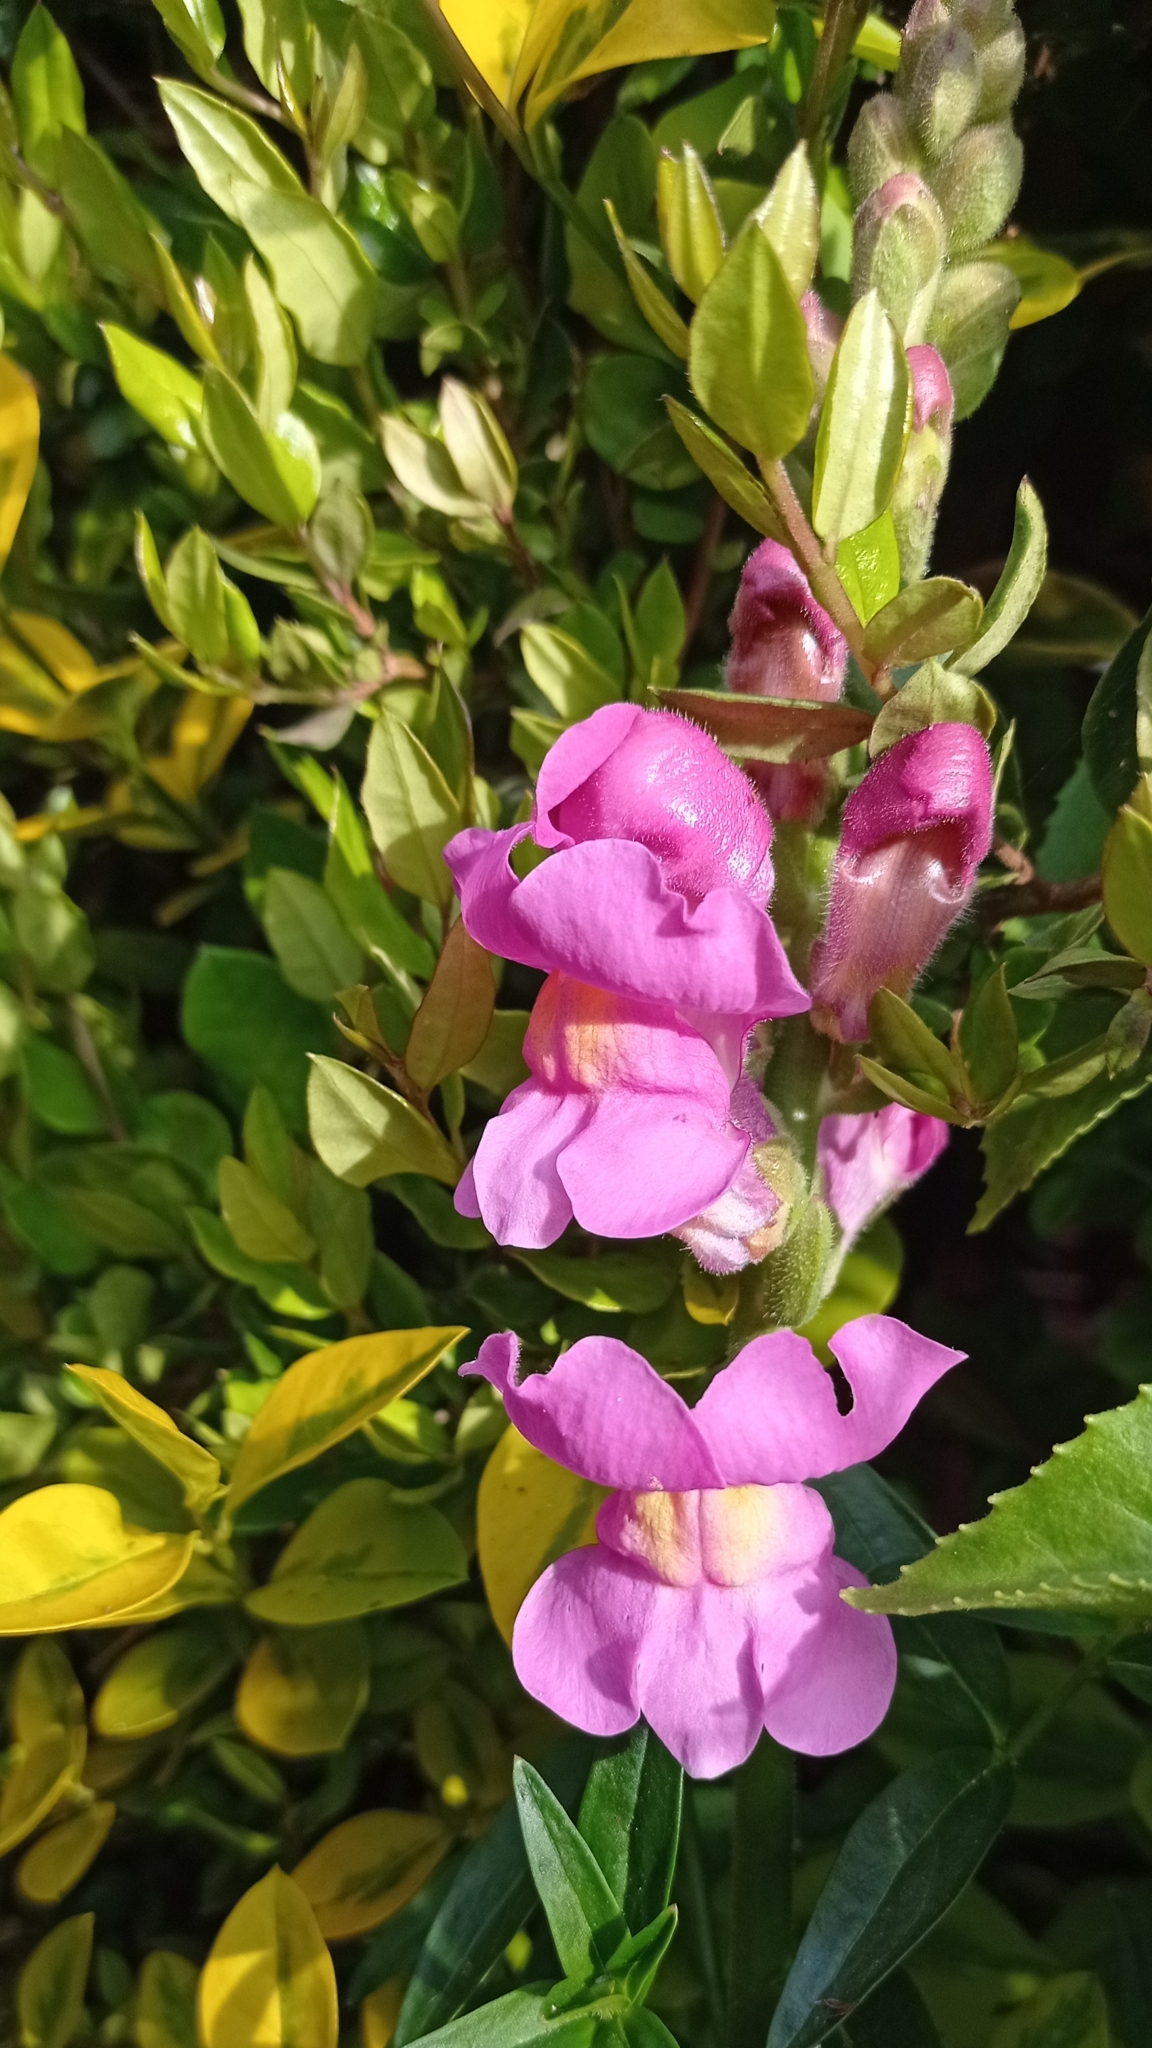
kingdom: Plantae
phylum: Tracheophyta
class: Magnoliopsida
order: Lamiales
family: Plantaginaceae
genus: Antirrhinum
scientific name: Antirrhinum majus
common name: Snapdragon
